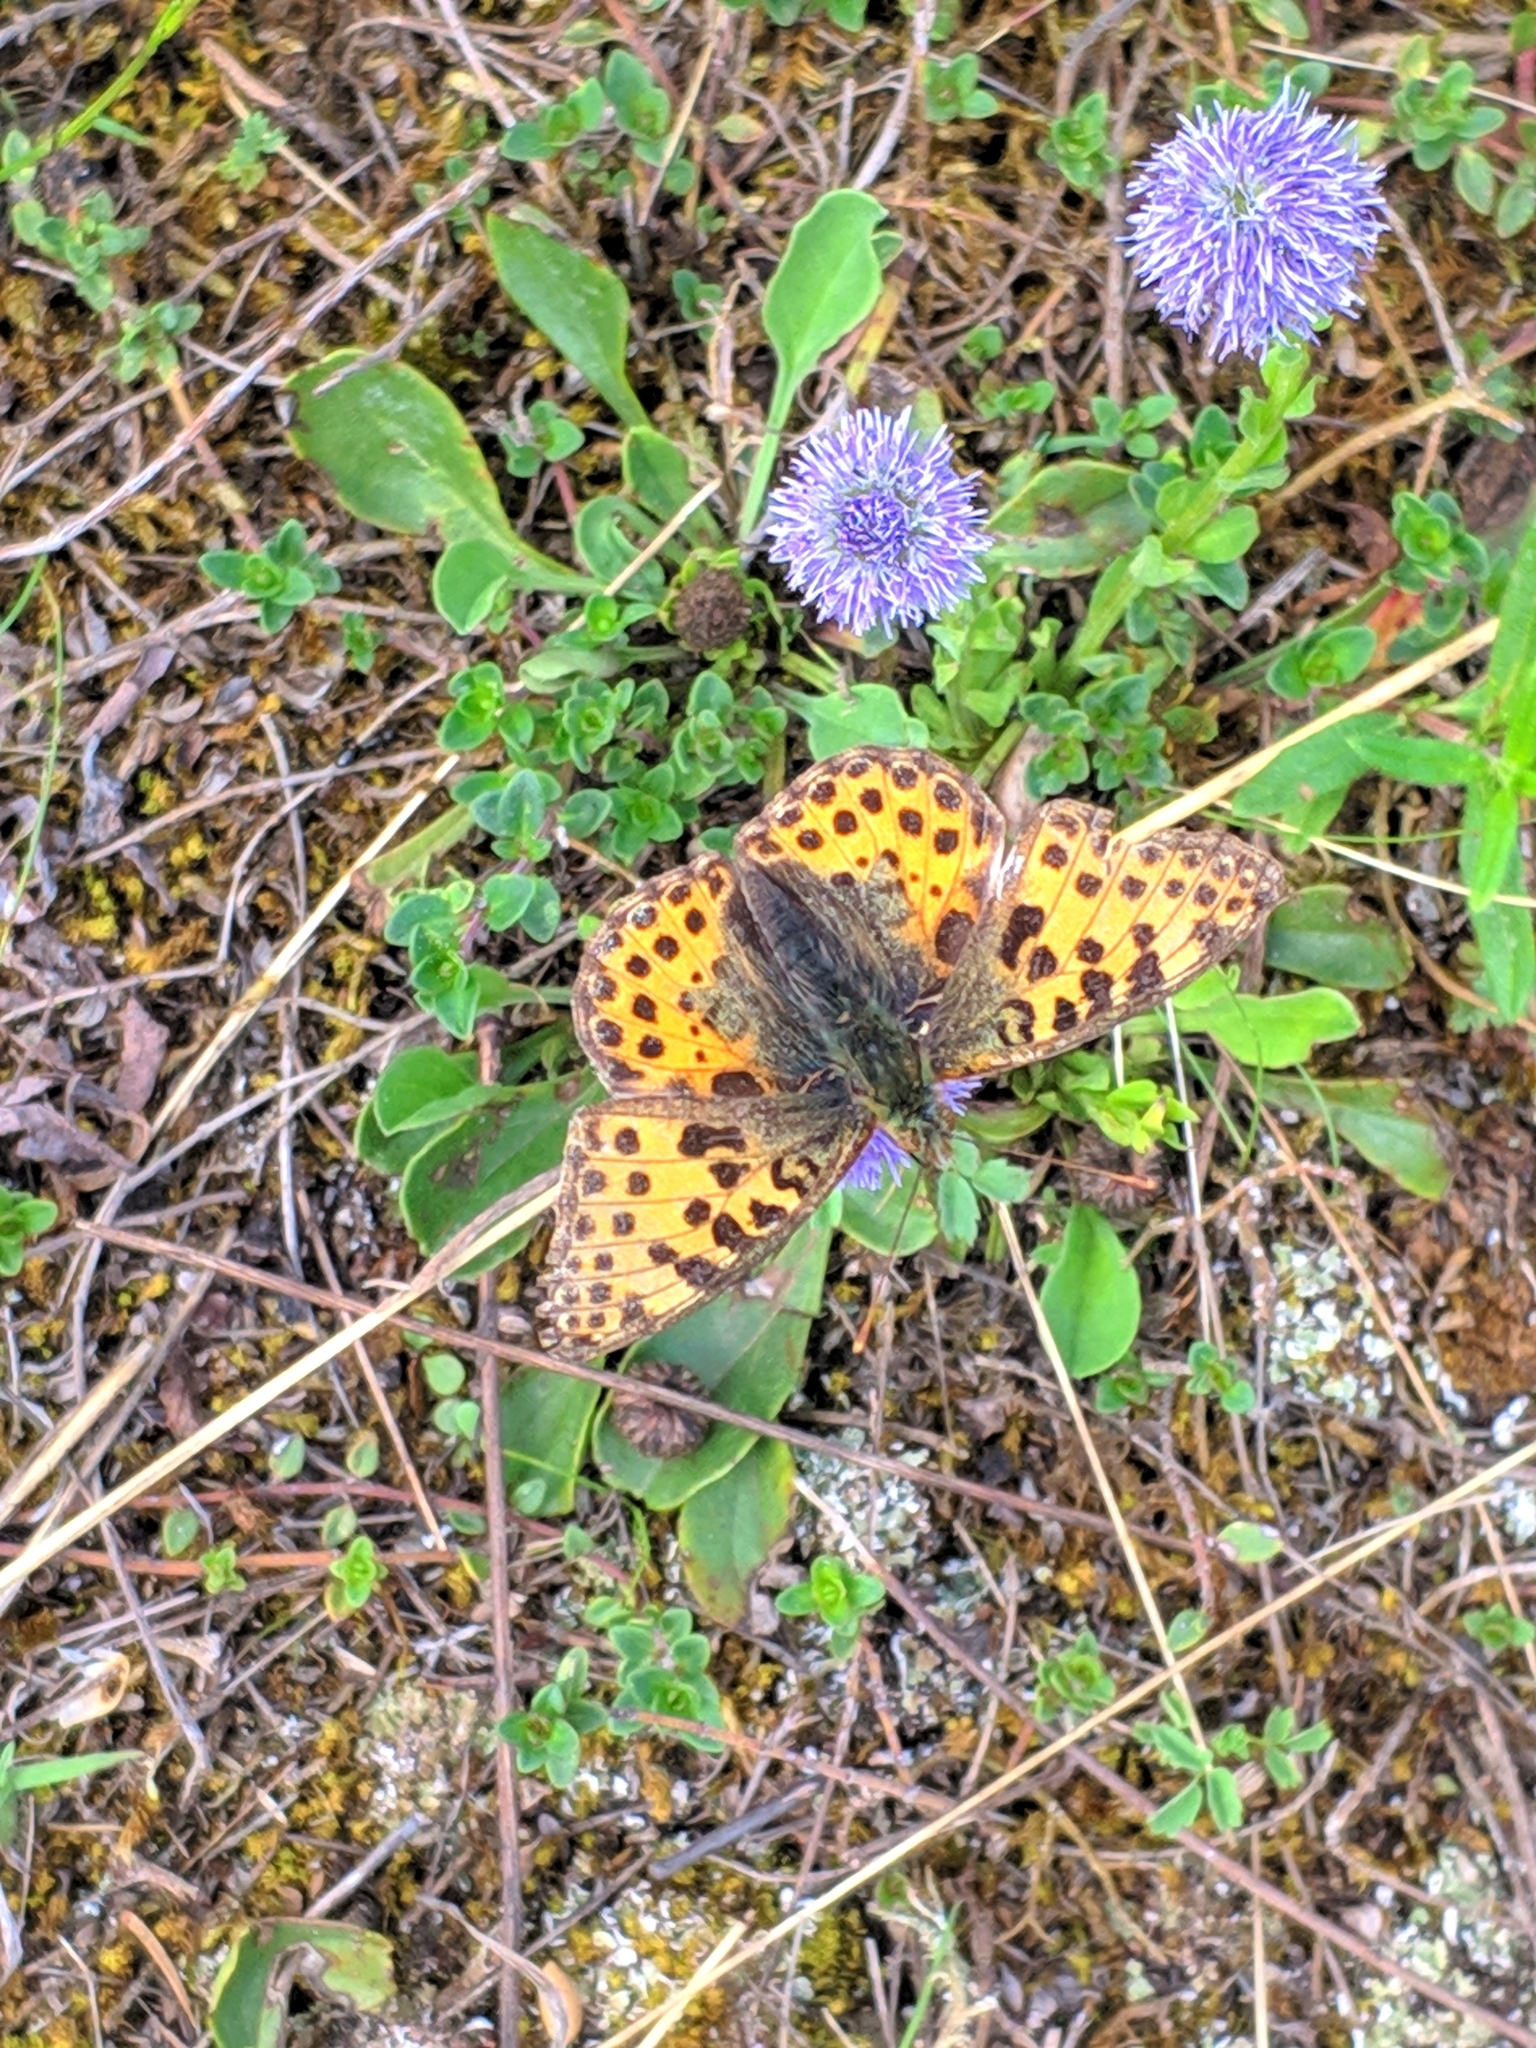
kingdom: Animalia
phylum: Arthropoda
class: Insecta
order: Lepidoptera
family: Nymphalidae
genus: Issoria
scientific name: Issoria lathonia
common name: Queen of spain fritillary
